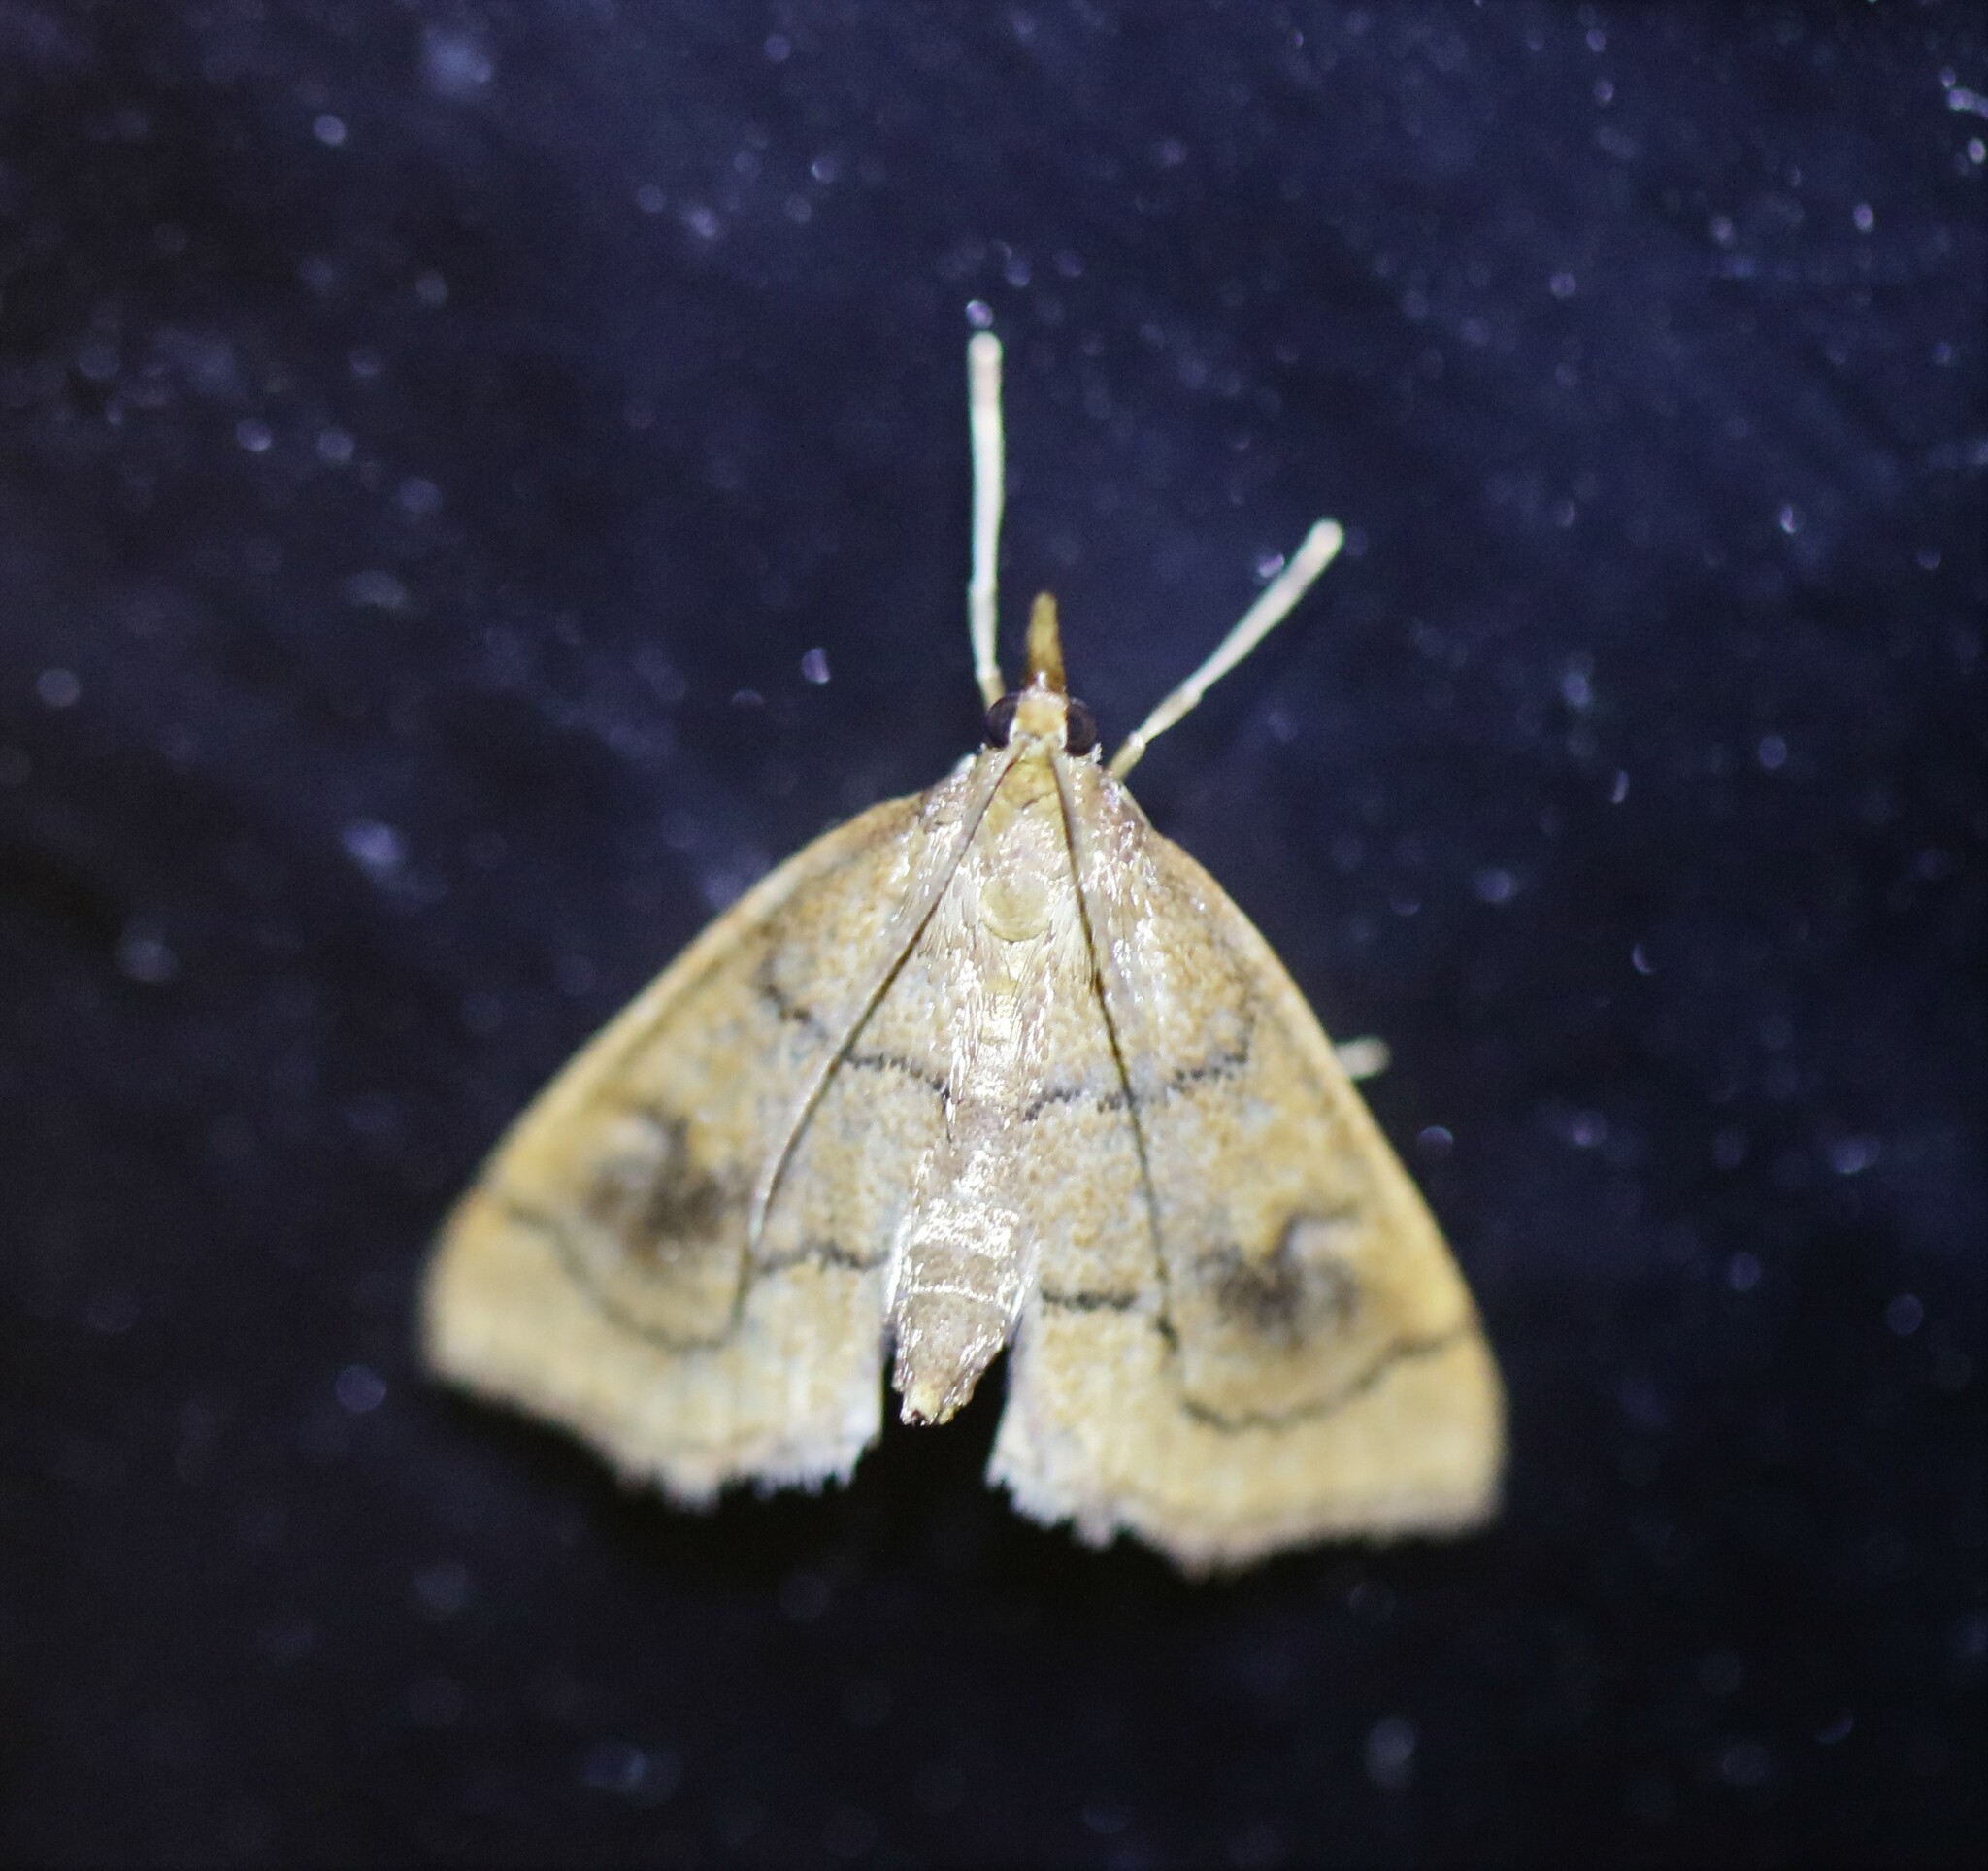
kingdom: Animalia
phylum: Arthropoda
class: Insecta
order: Lepidoptera
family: Crambidae
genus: Fumibotys
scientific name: Fumibotys fumalis
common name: Mint root borer moth
